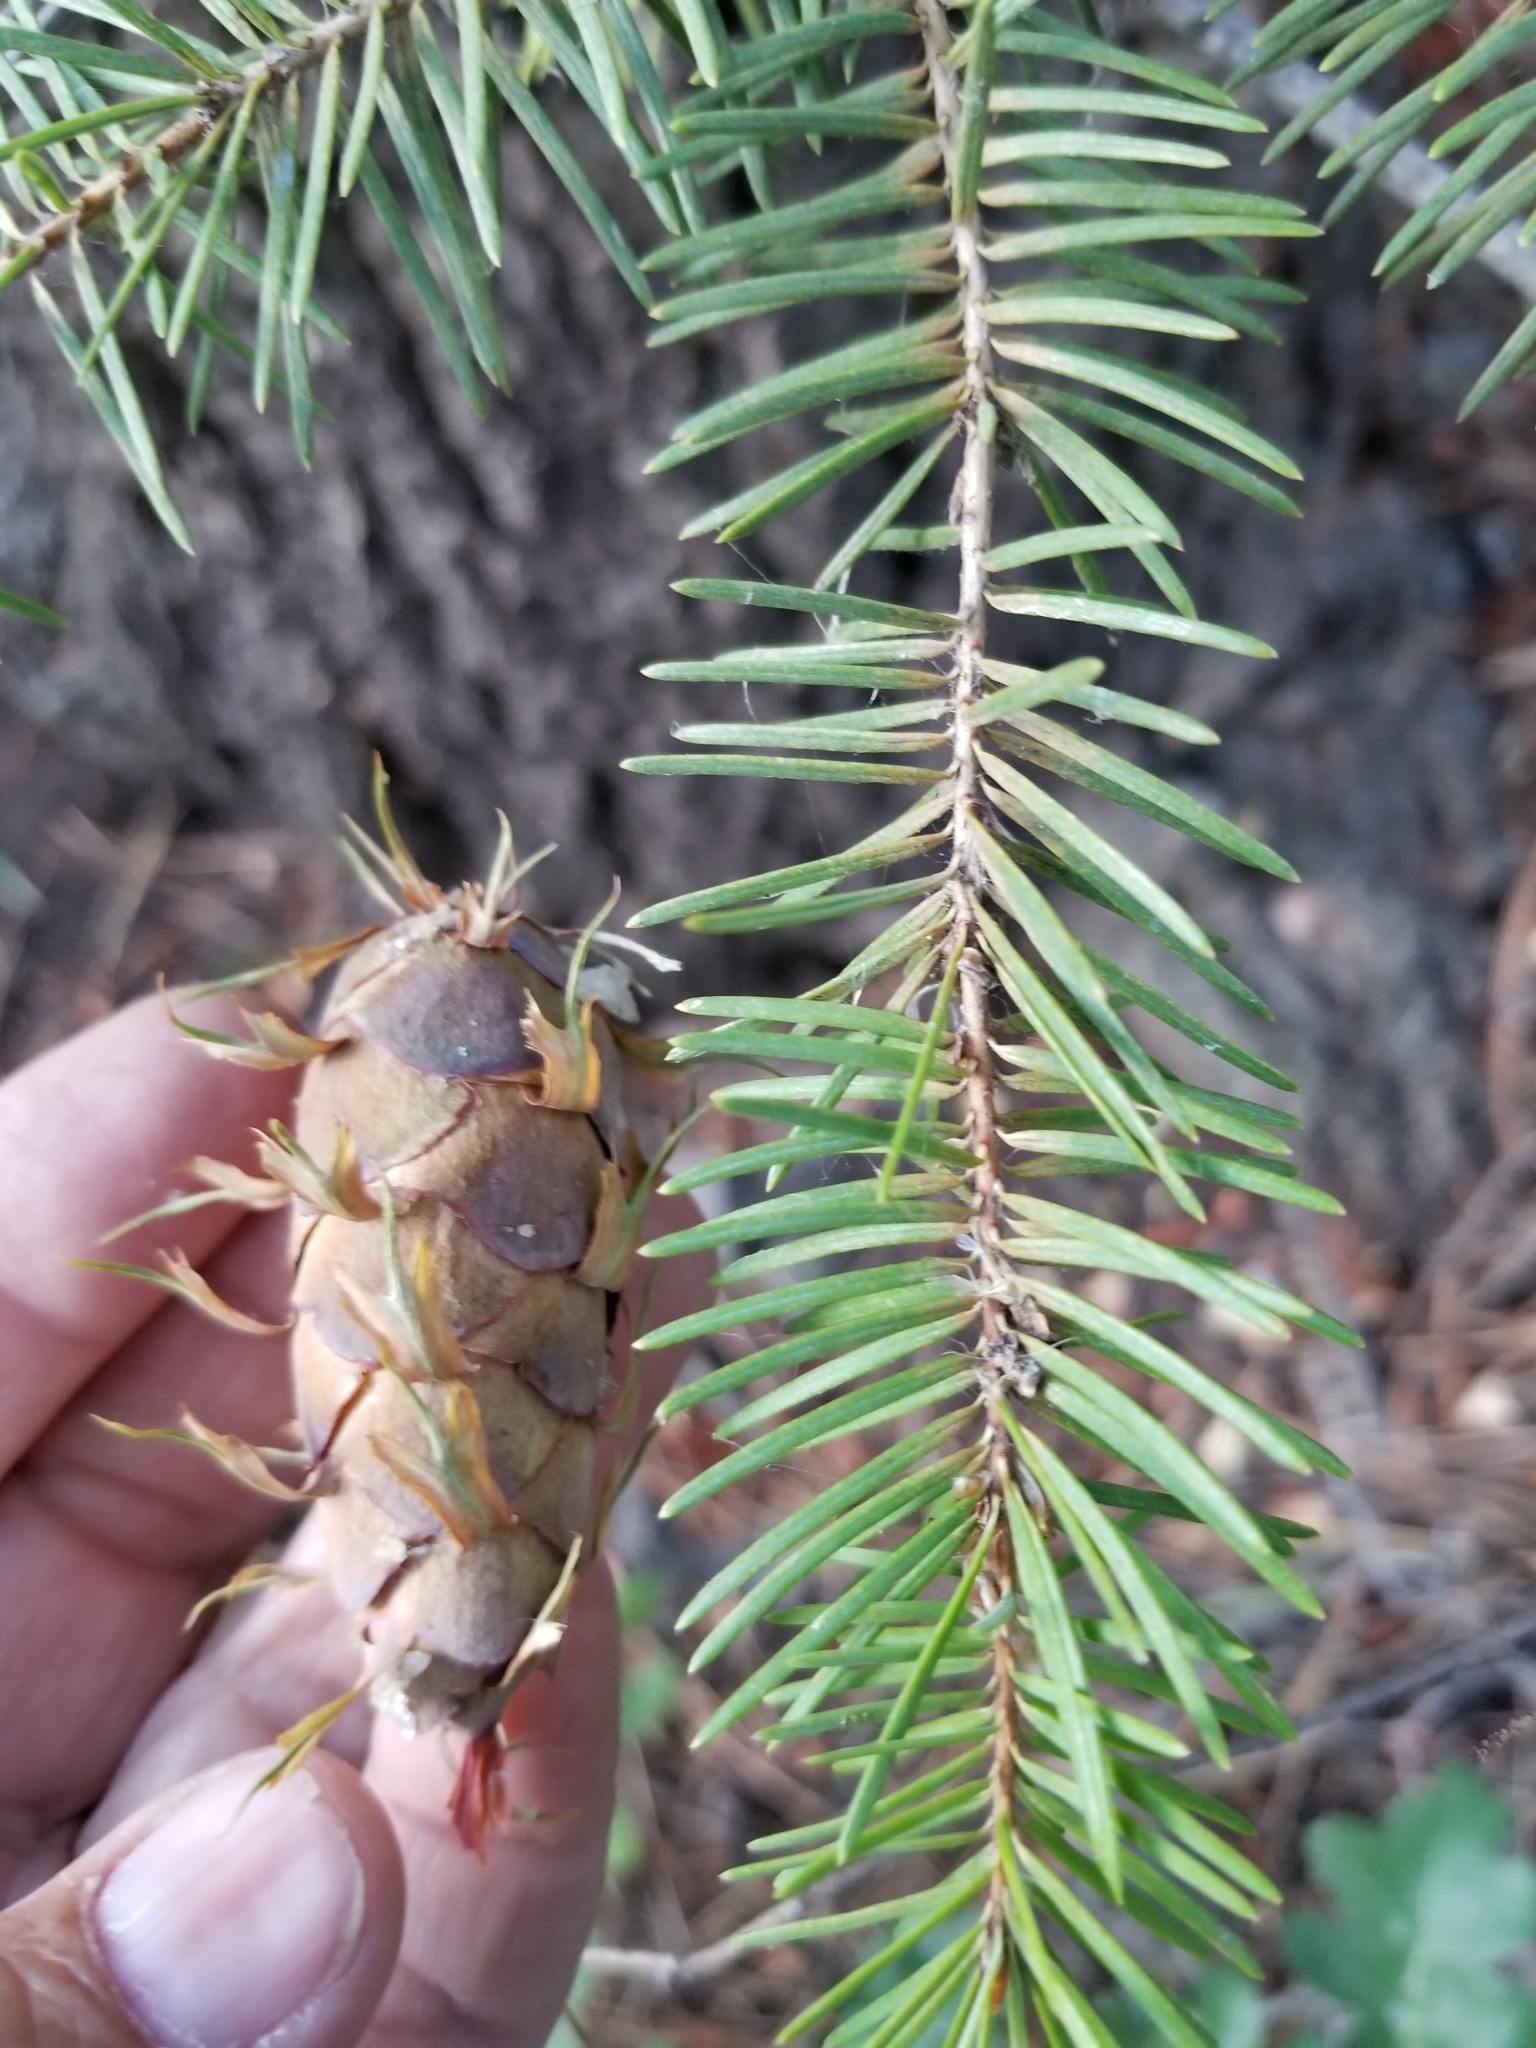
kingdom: Plantae
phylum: Tracheophyta
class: Pinopsida
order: Pinales
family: Pinaceae
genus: Pseudotsuga
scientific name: Pseudotsuga menziesii
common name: Douglas fir
